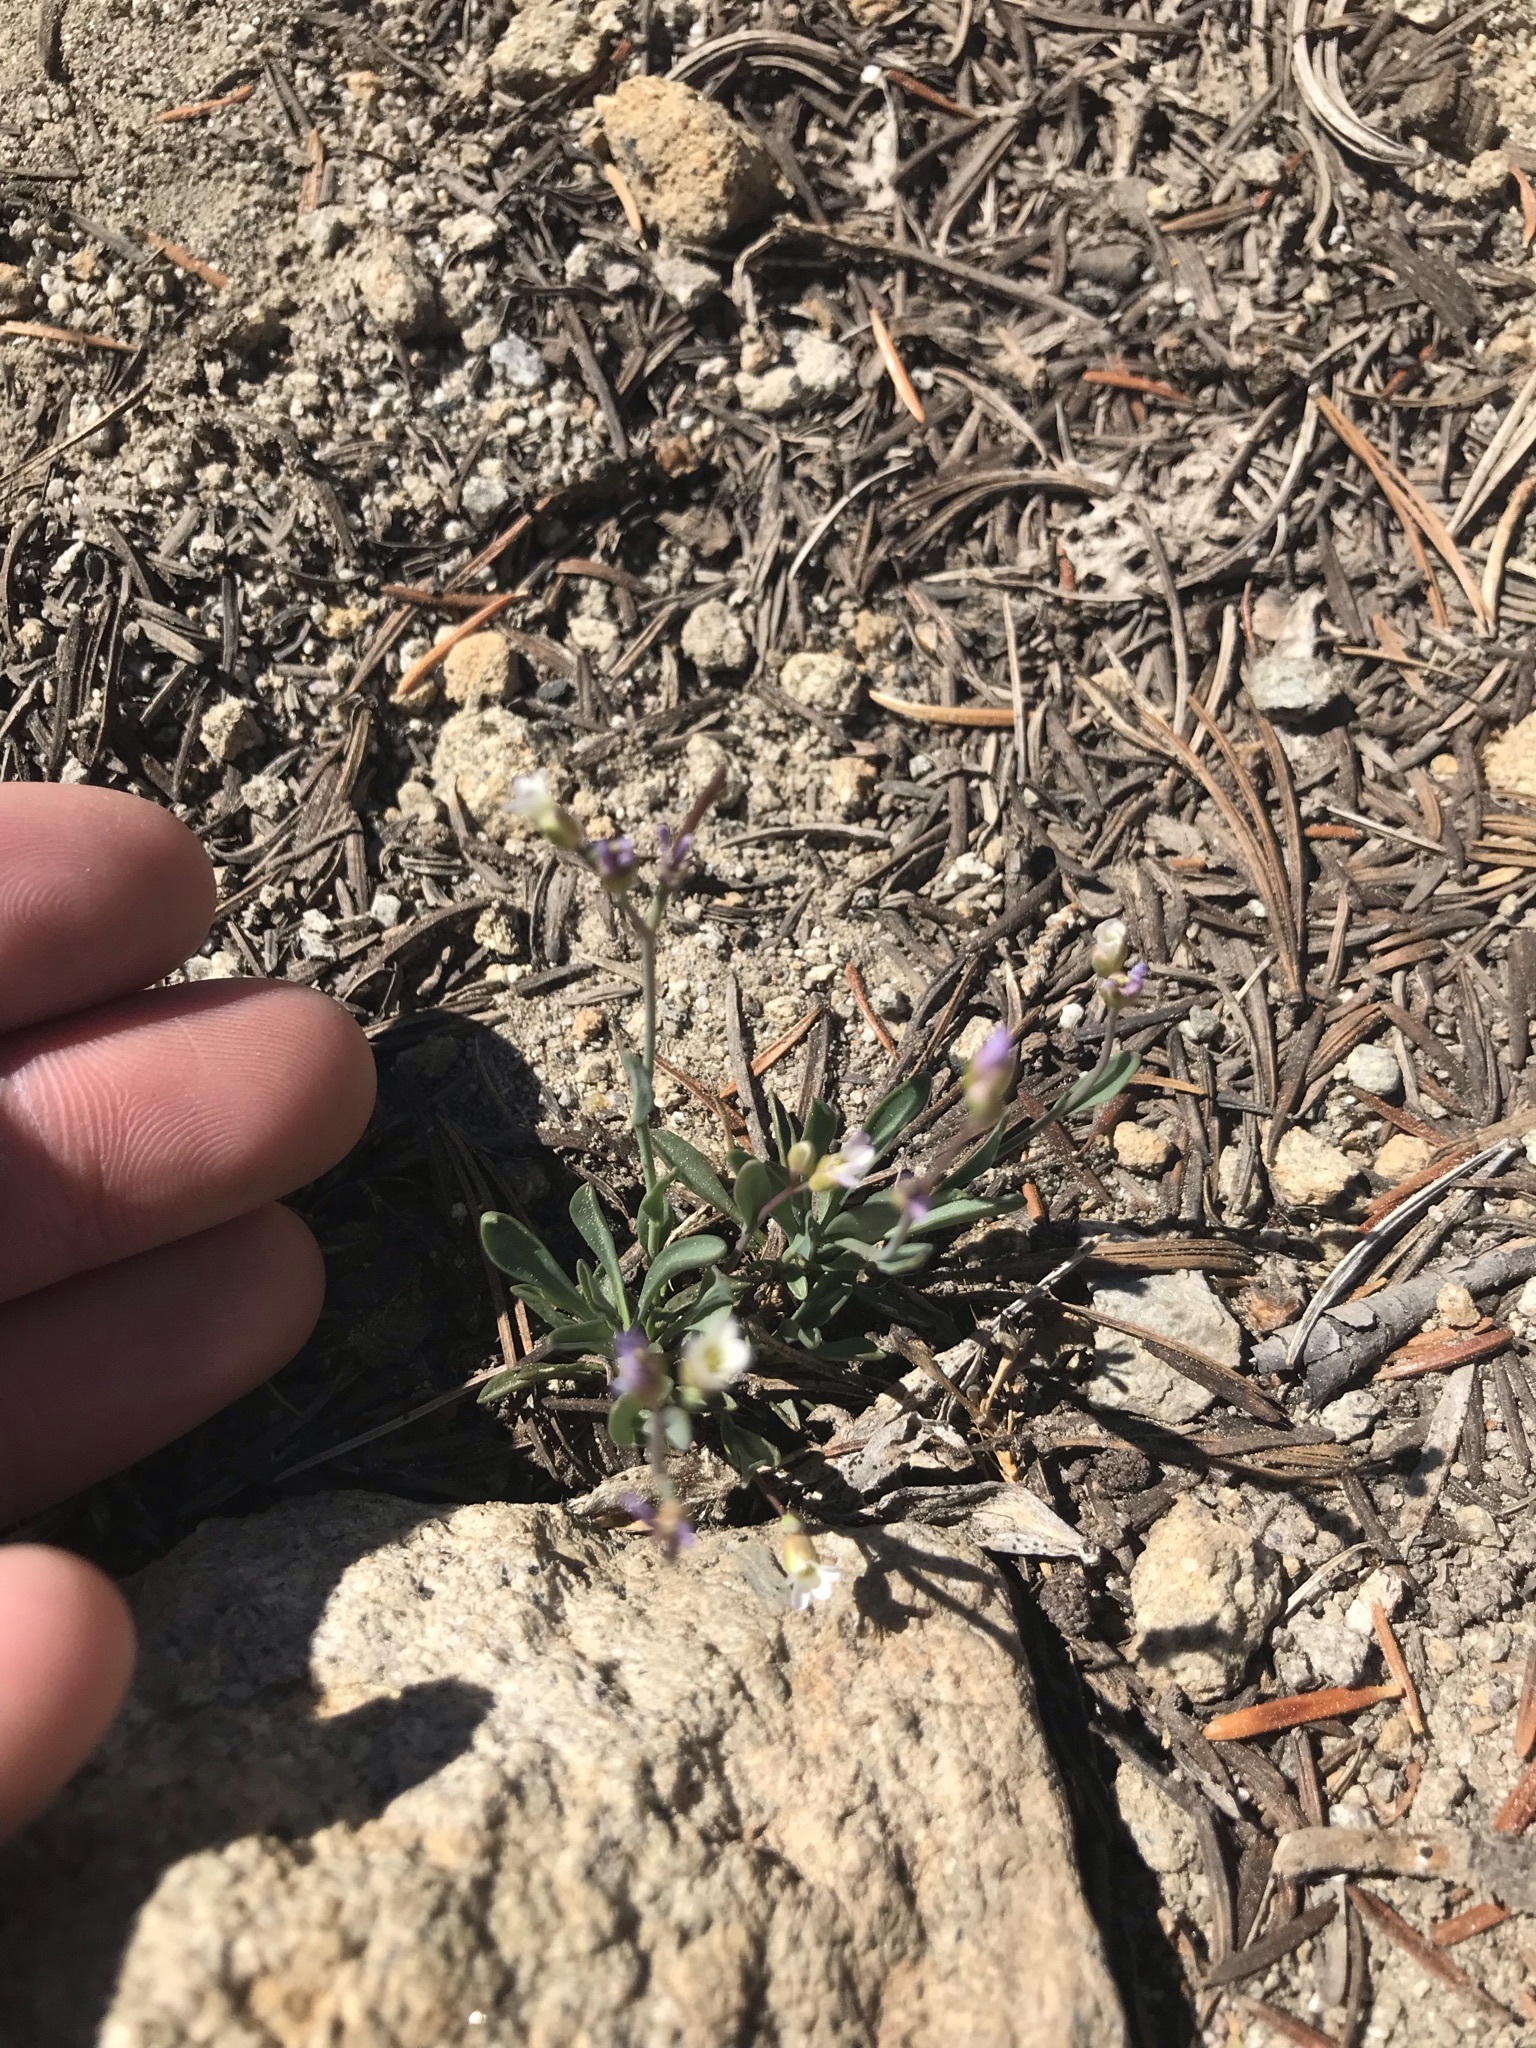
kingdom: Plantae
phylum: Tracheophyta
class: Magnoliopsida
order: Brassicales
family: Brassicaceae
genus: Boechera
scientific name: Boechera howellii
